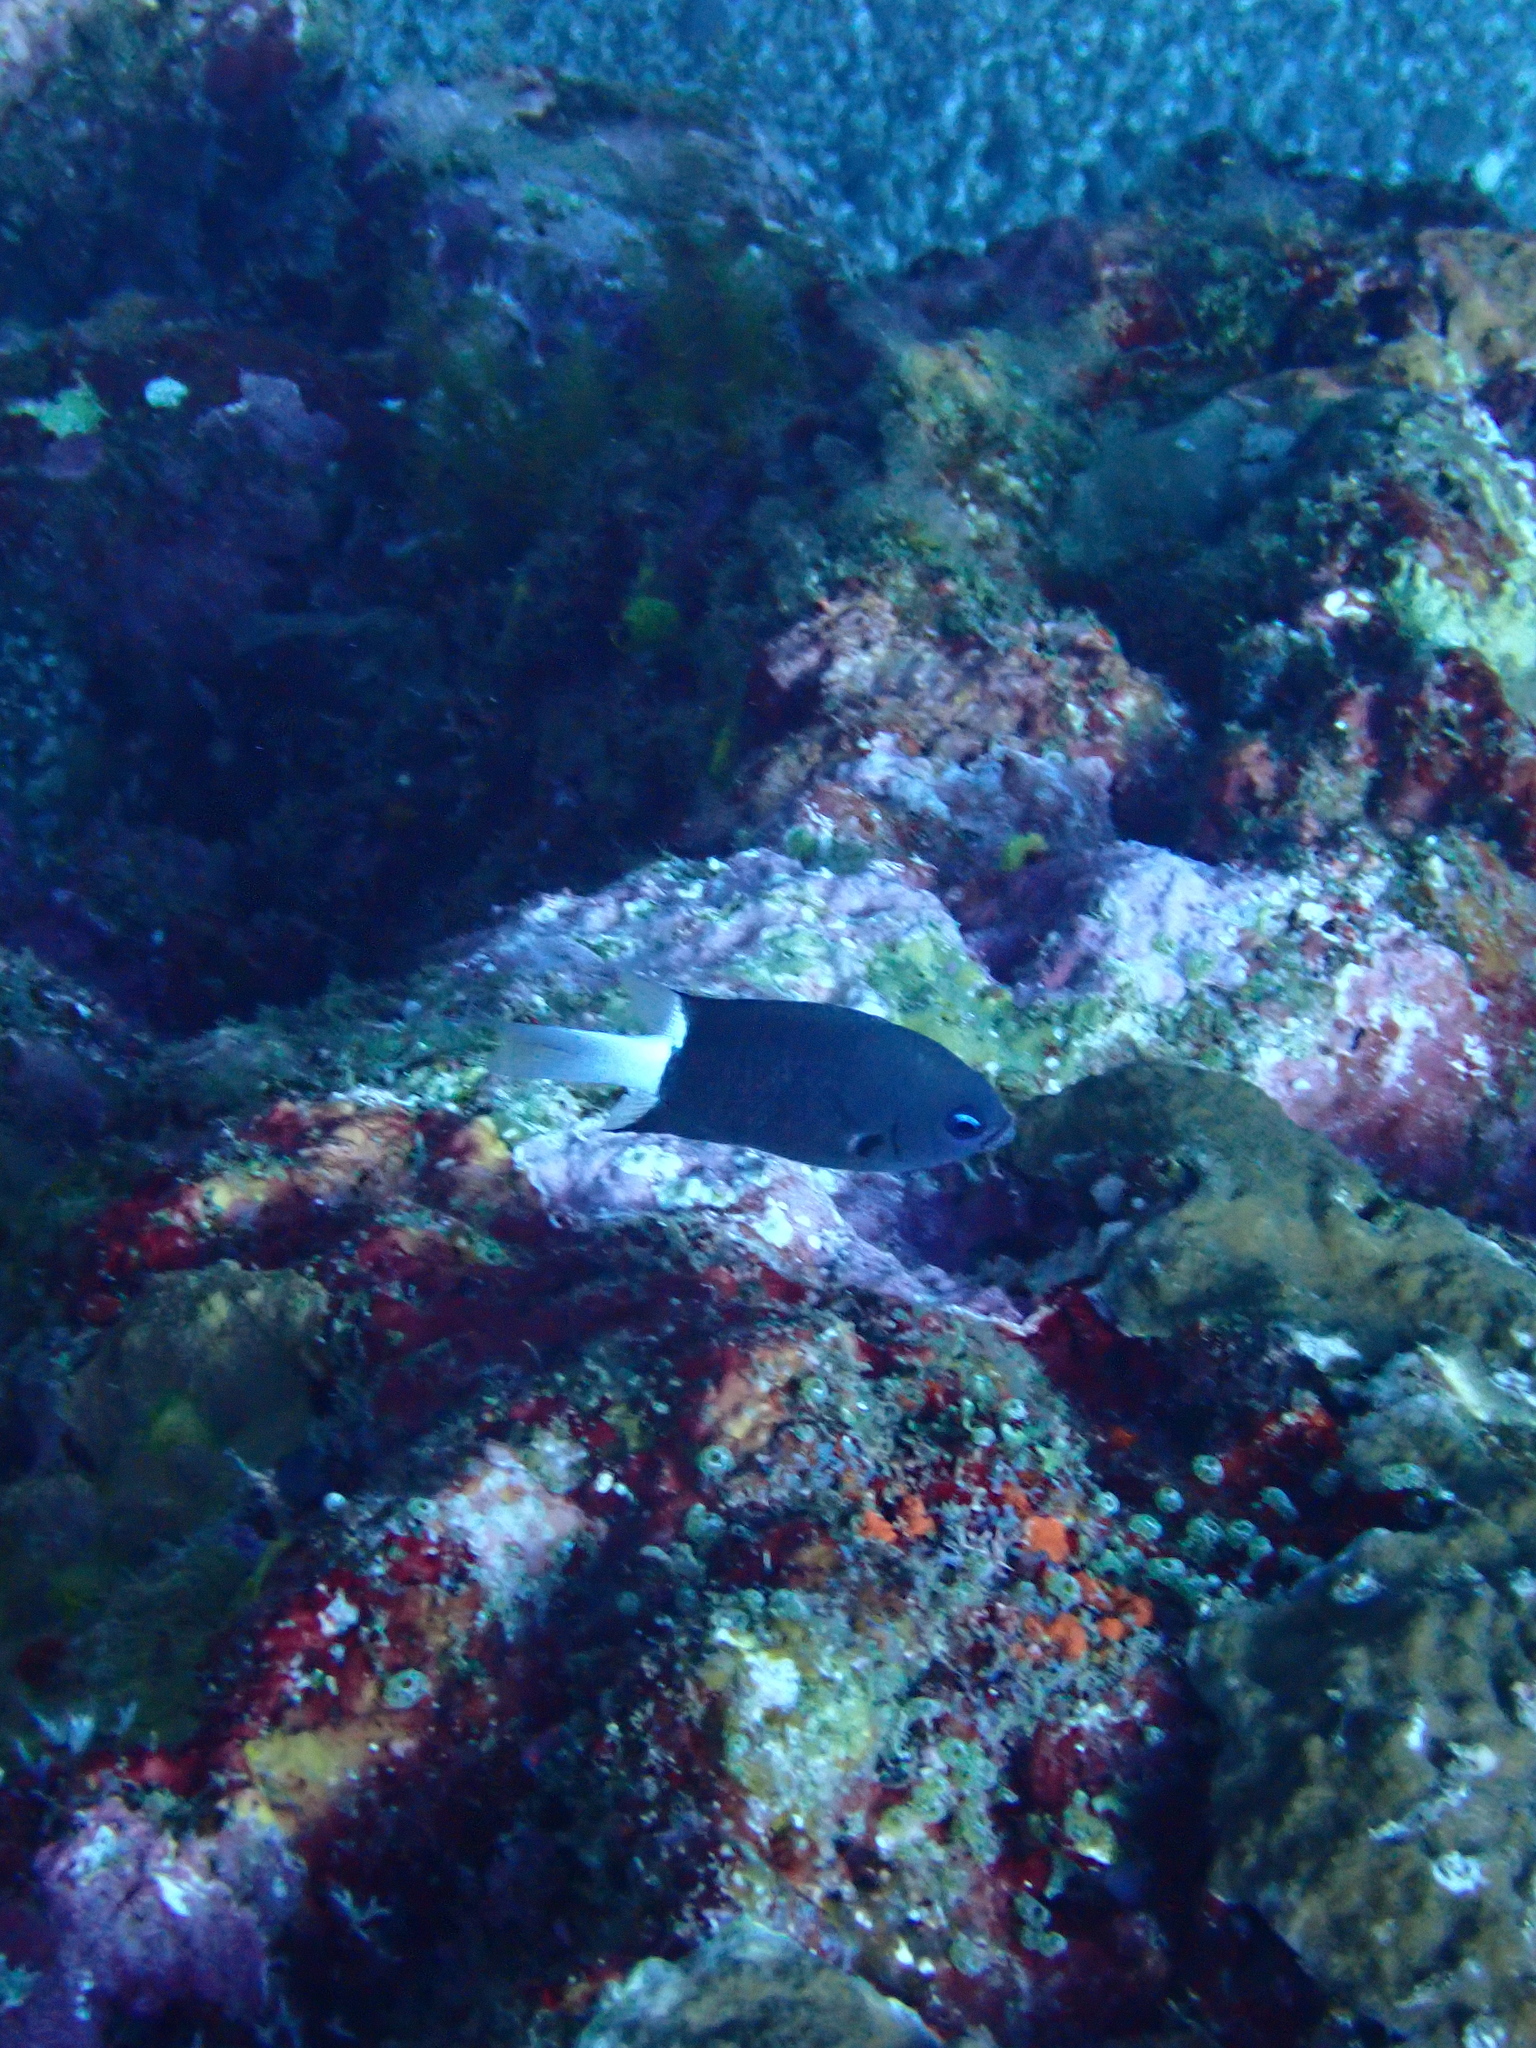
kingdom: Animalia
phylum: Chordata
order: Perciformes
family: Pomacentridae
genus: Pycnochromis
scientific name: Pycnochromis margaritifer
